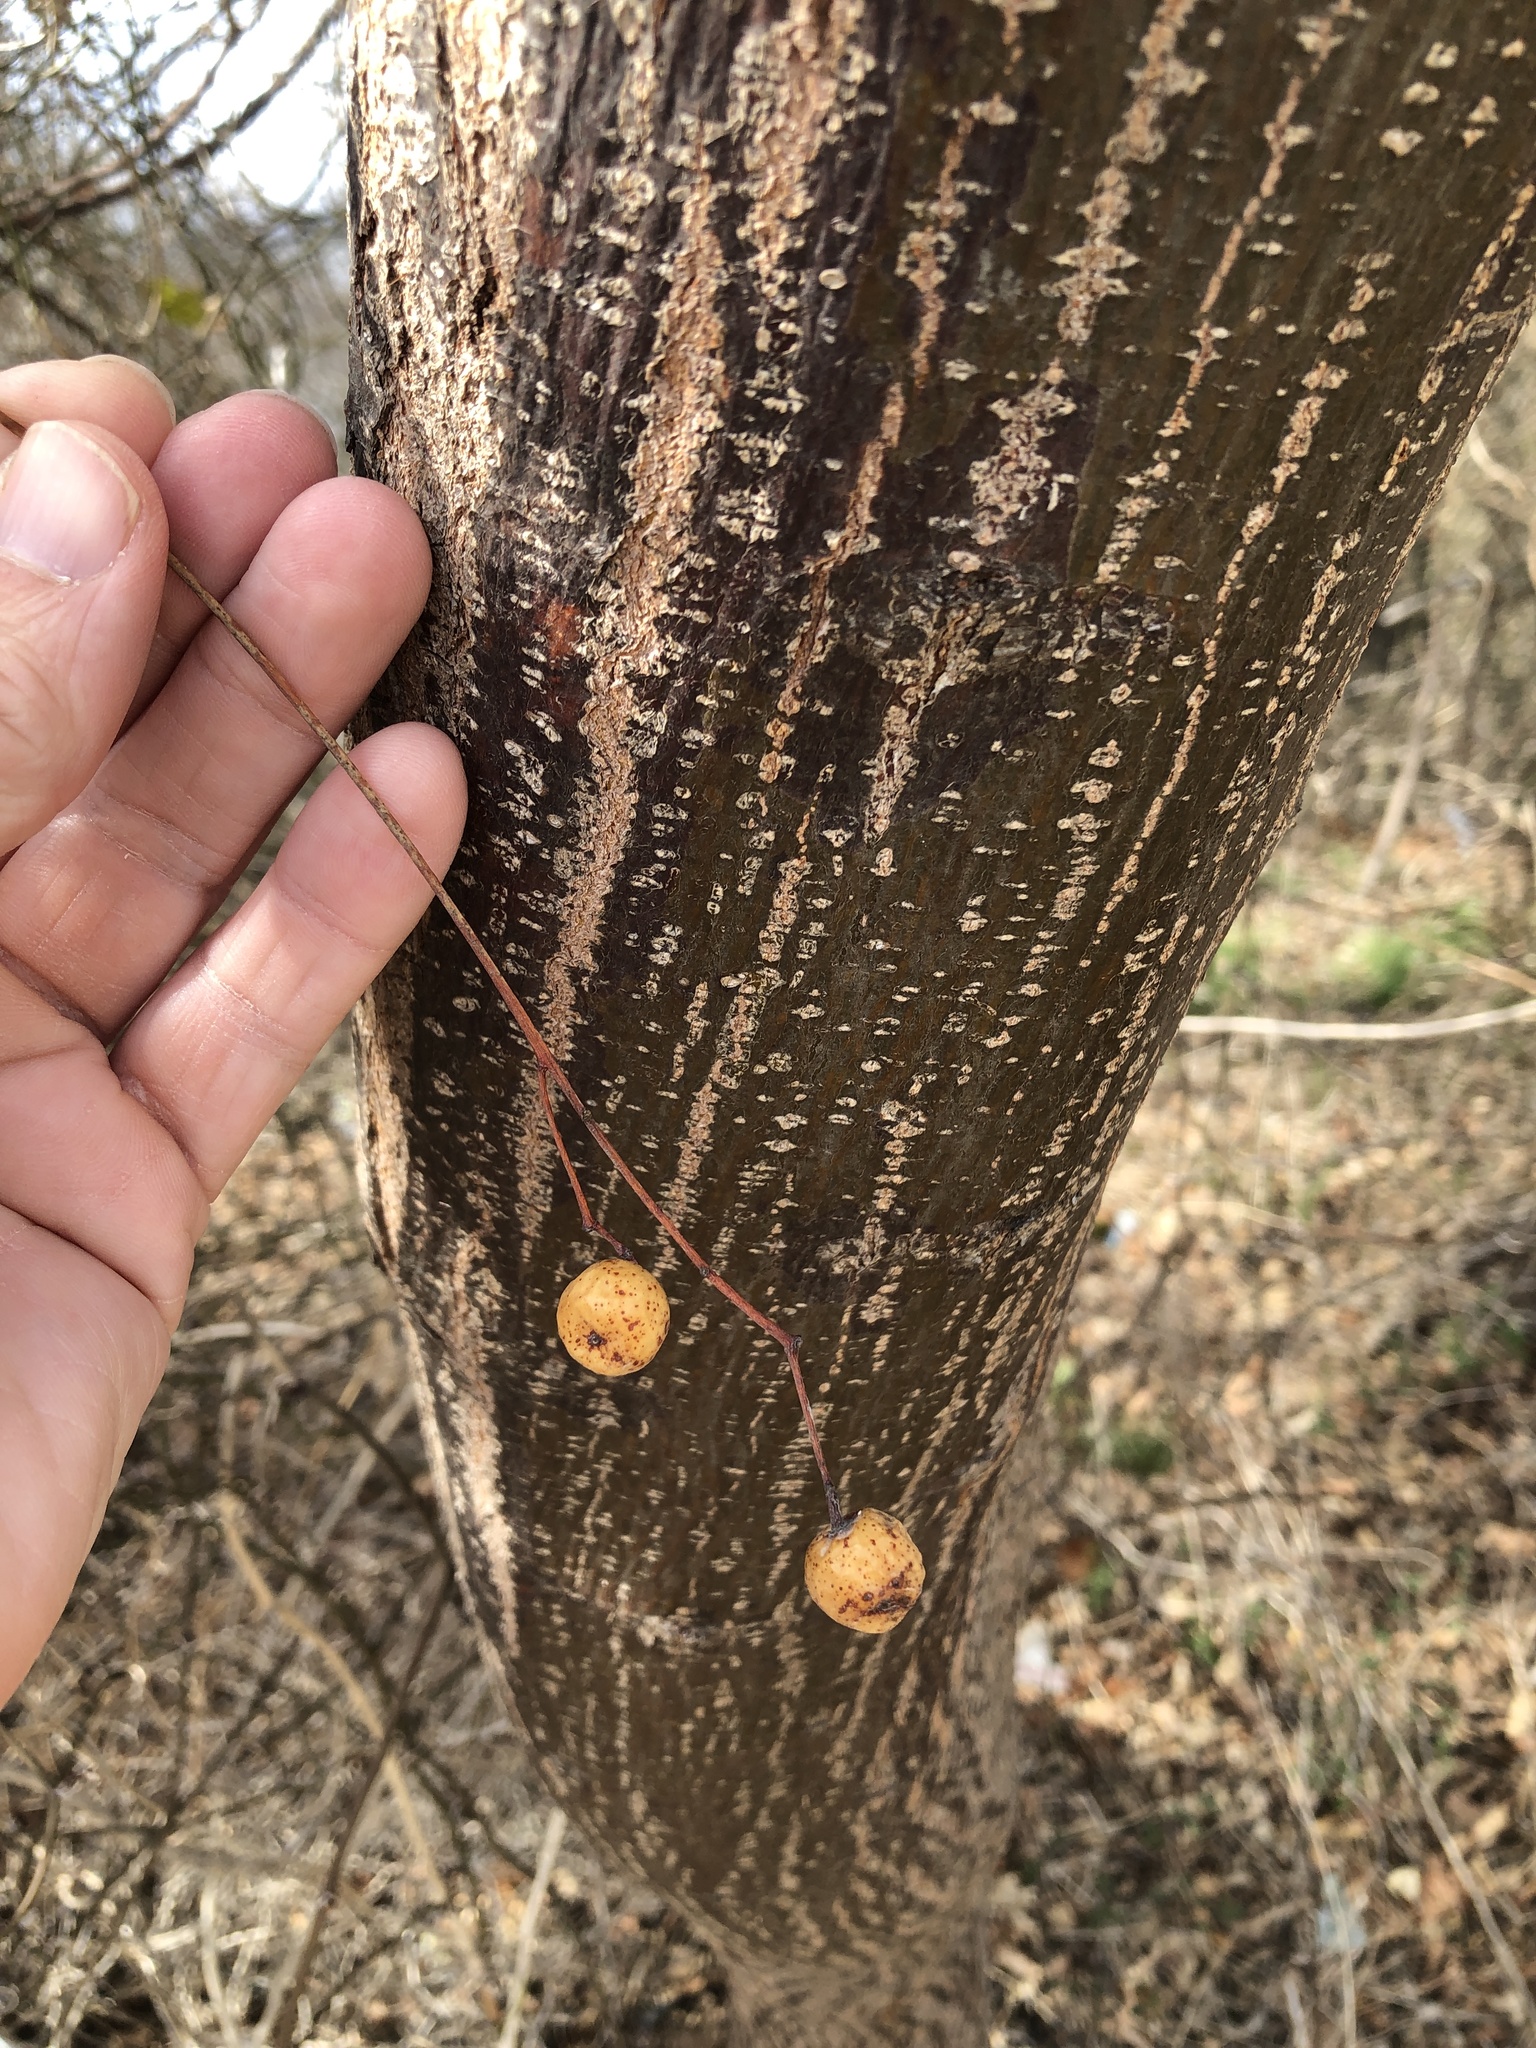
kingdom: Plantae
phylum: Tracheophyta
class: Magnoliopsida
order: Sapindales
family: Meliaceae
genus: Melia
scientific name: Melia azedarach
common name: Chinaberrytree
